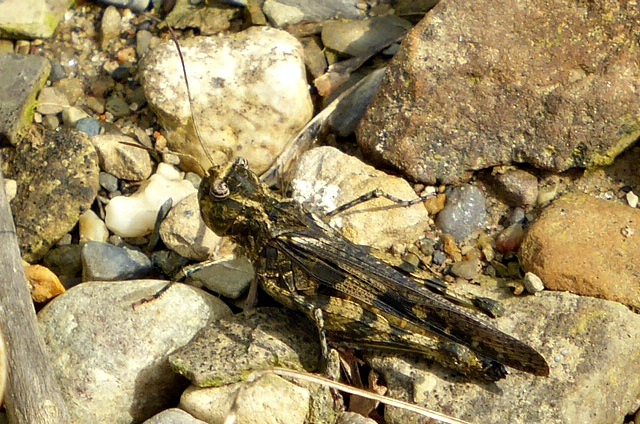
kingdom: Animalia
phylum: Arthropoda
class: Insecta
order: Orthoptera
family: Acrididae
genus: Trachyrhachys
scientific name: Trachyrhachys kiowa
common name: Kiowa grasshopper
